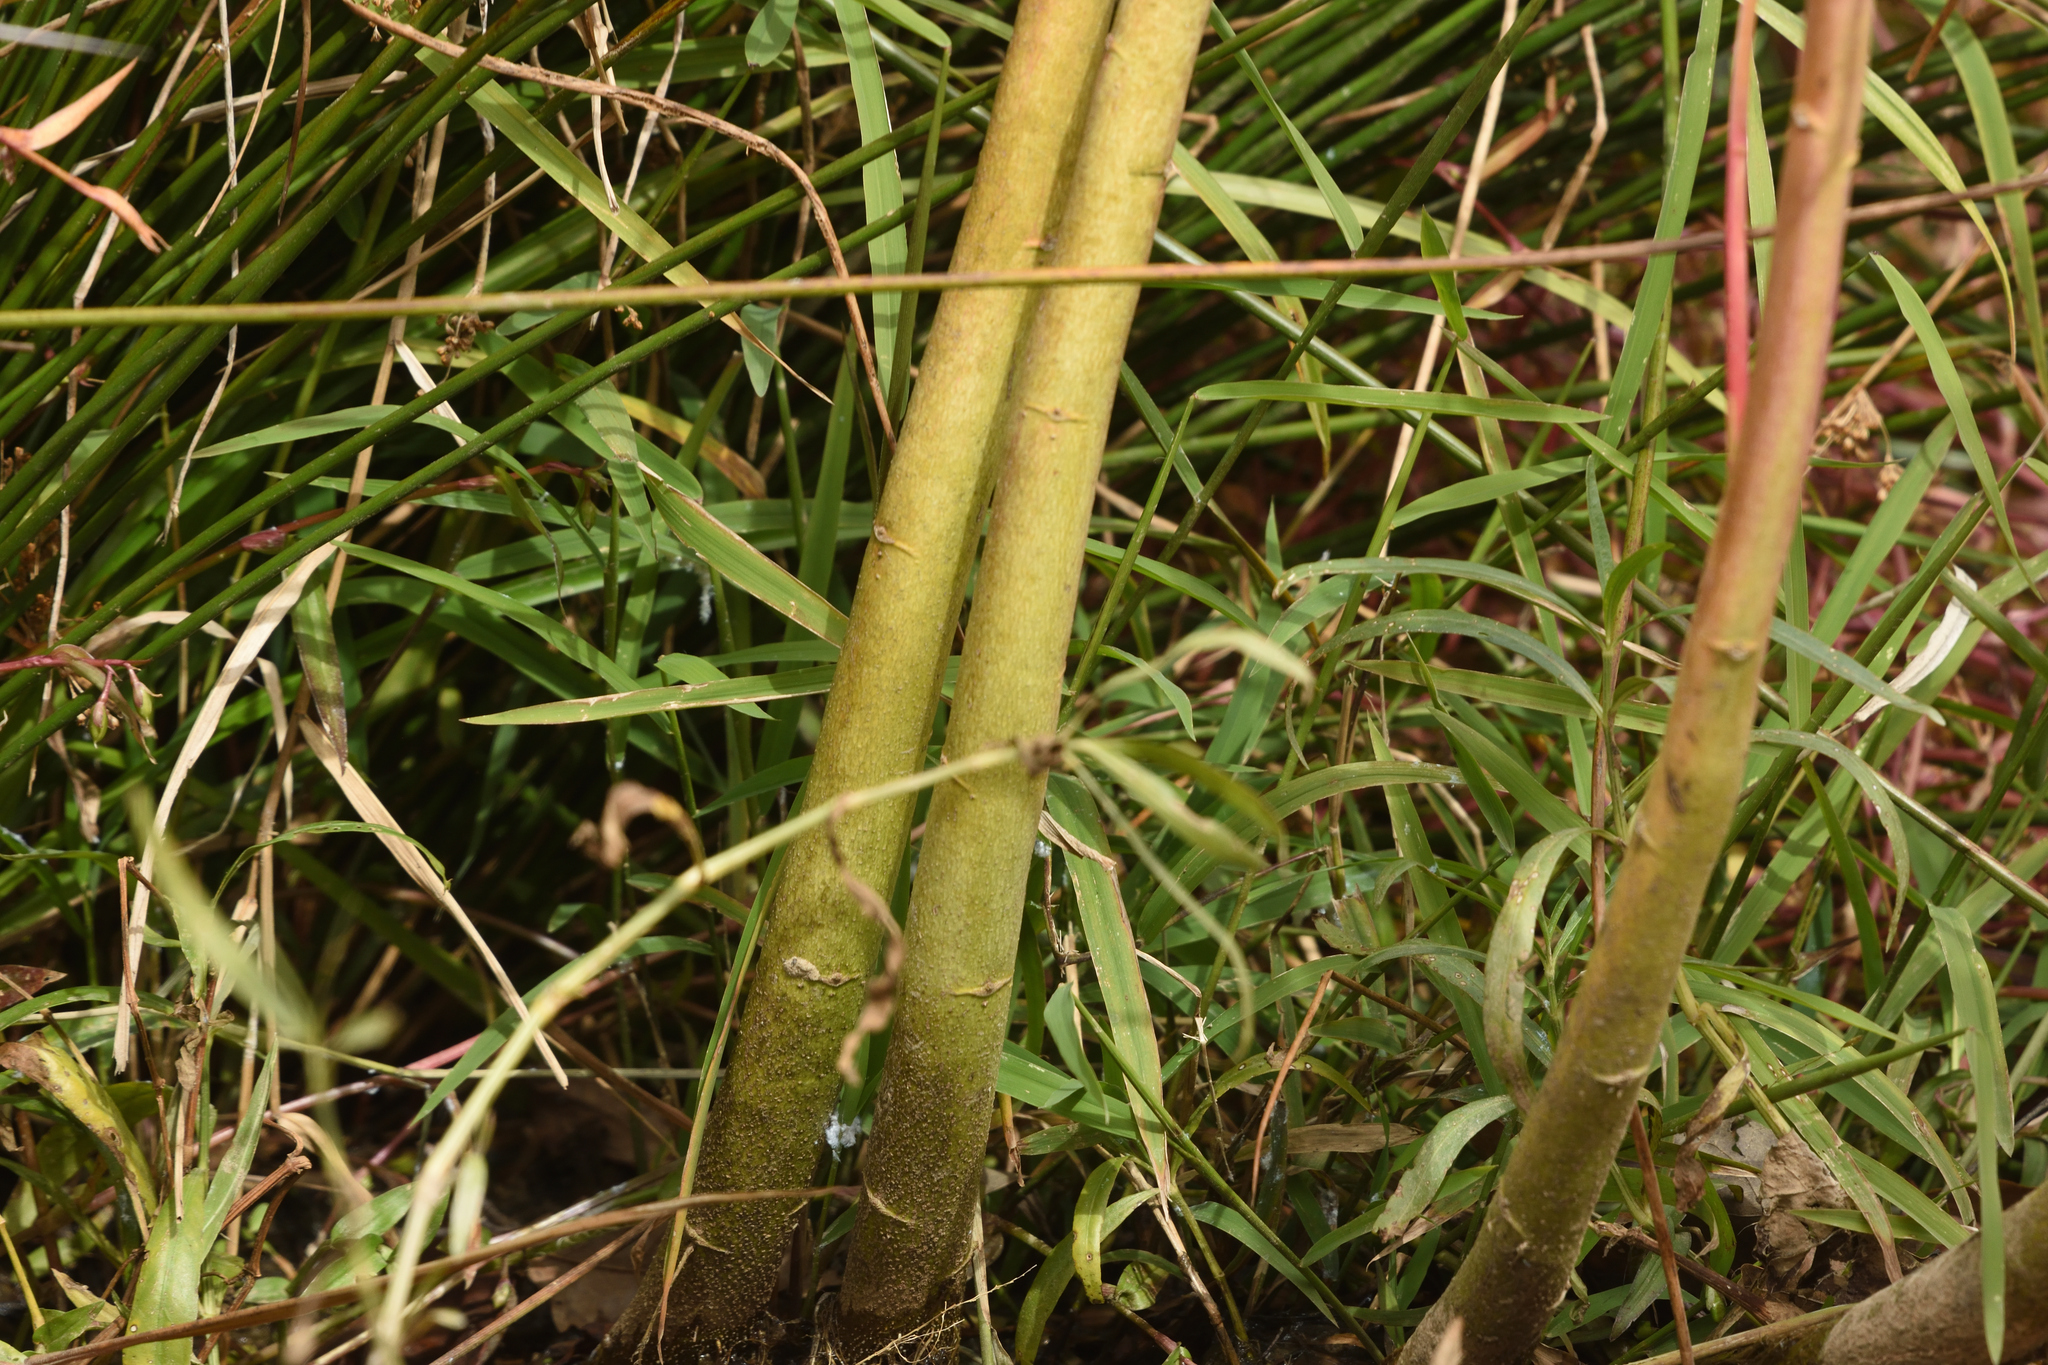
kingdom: Plantae
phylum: Tracheophyta
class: Magnoliopsida
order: Malvales
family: Malvaceae
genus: Hibiscus
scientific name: Hibiscus moscheutos
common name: Common rose-mallow
